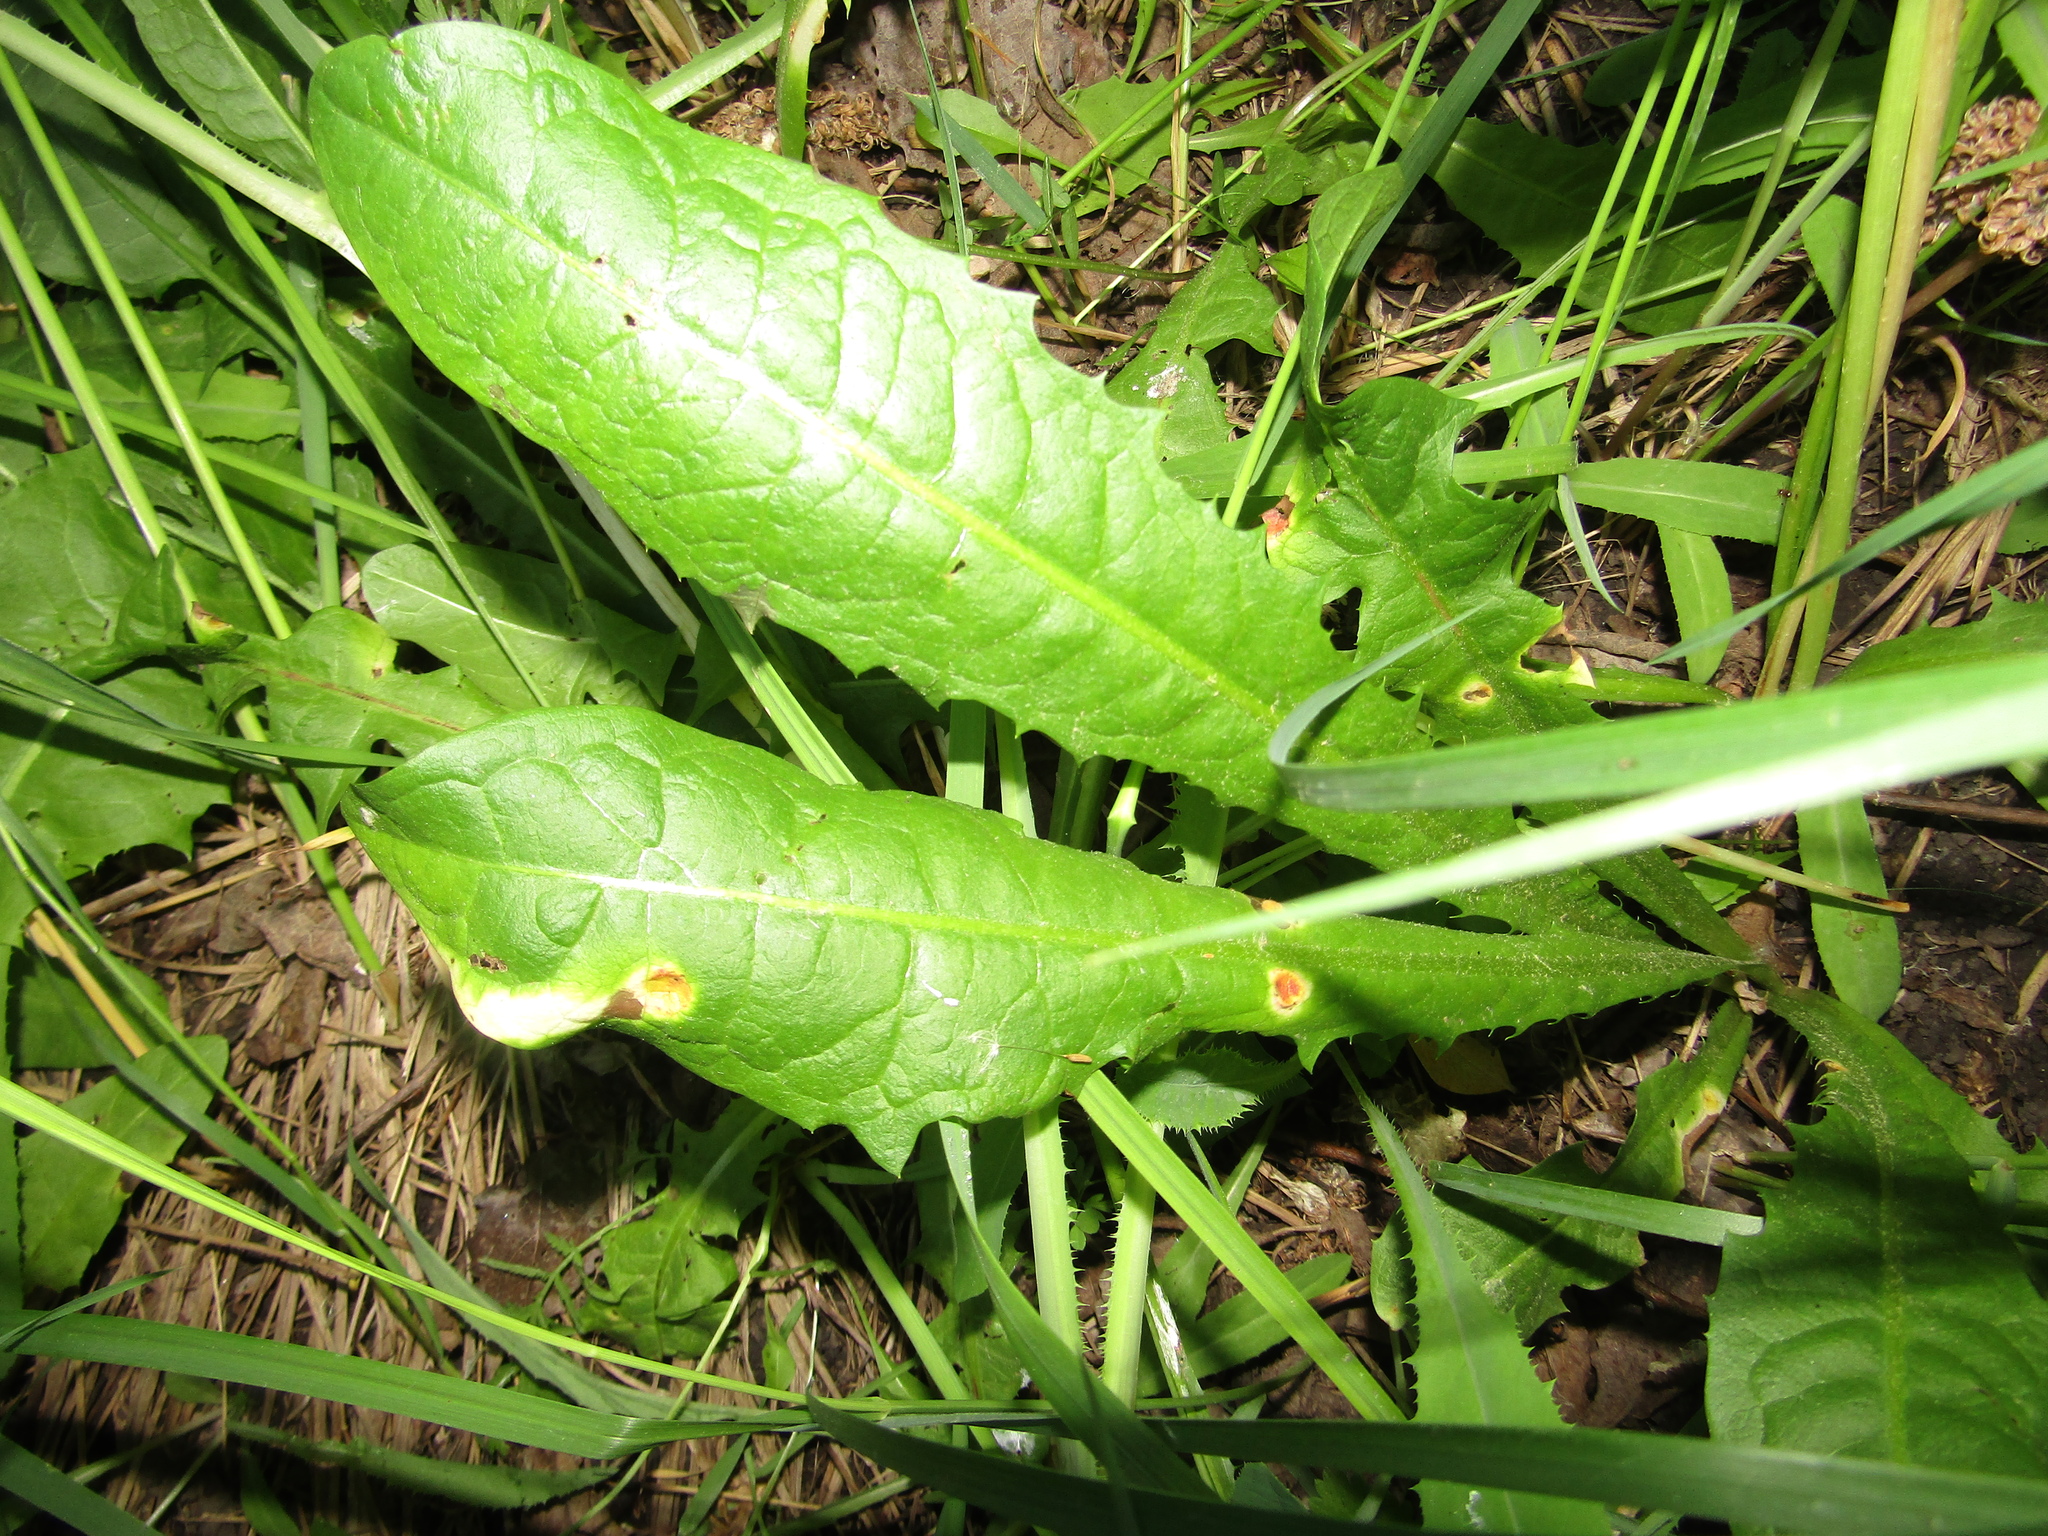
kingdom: Plantae
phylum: Tracheophyta
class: Magnoliopsida
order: Asterales
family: Asteraceae
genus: Taraxacum
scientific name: Taraxacum officinale
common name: Common dandelion
